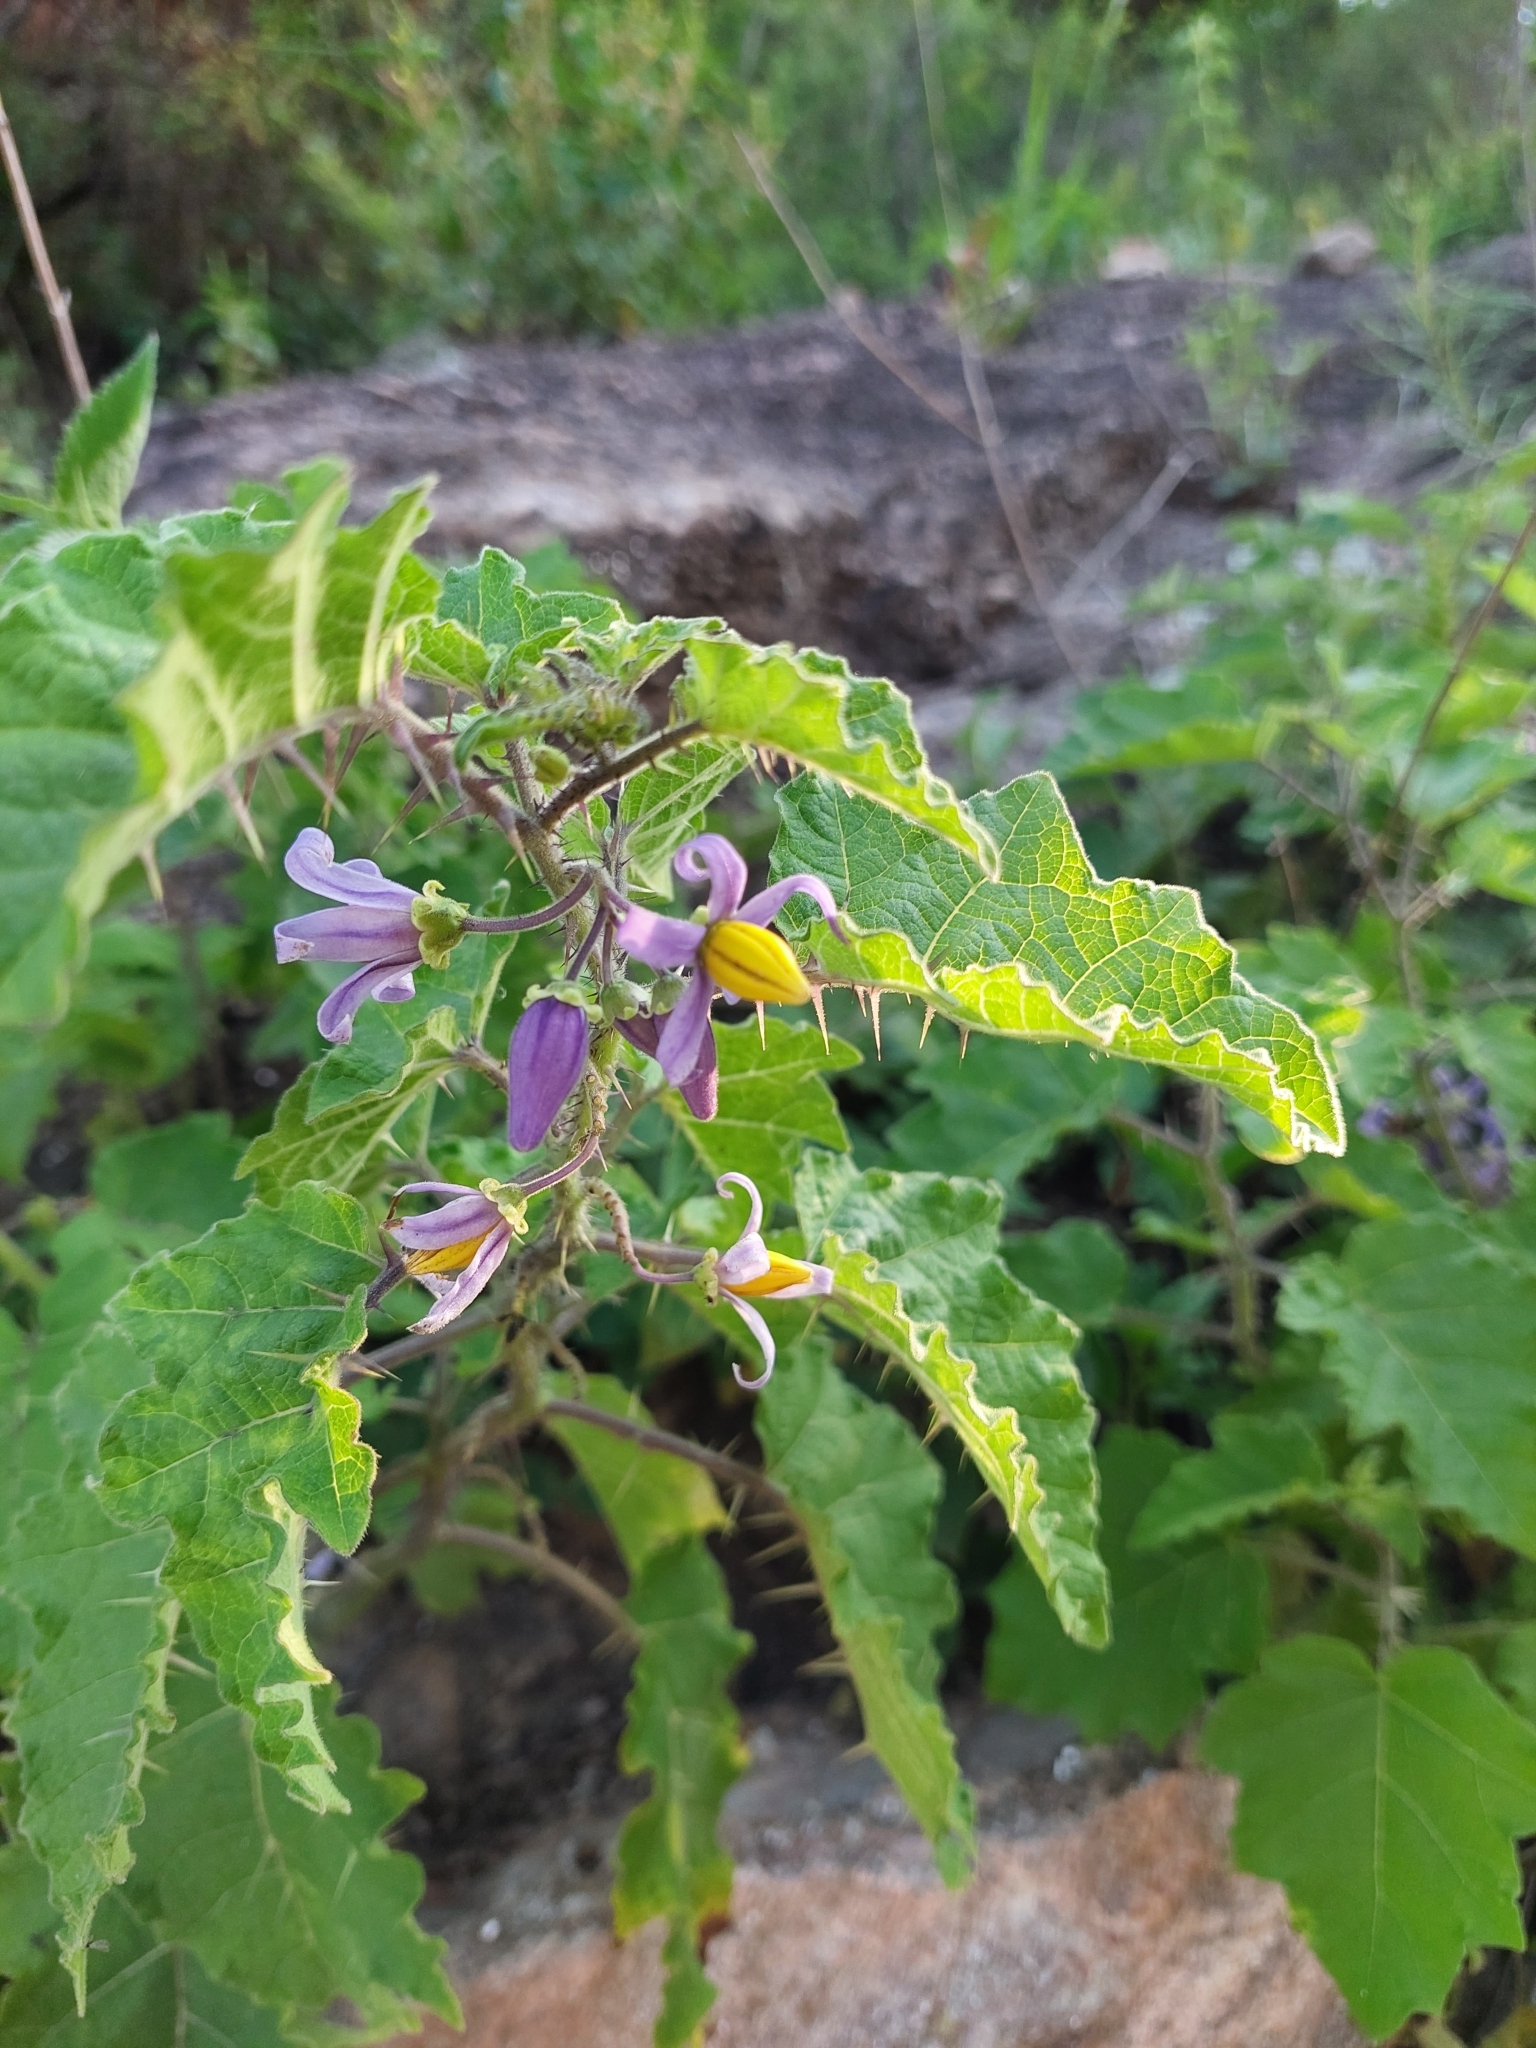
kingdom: Plantae
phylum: Tracheophyta
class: Magnoliopsida
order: Solanales
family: Solanaceae
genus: Solanum
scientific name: Solanum palinacanthum
